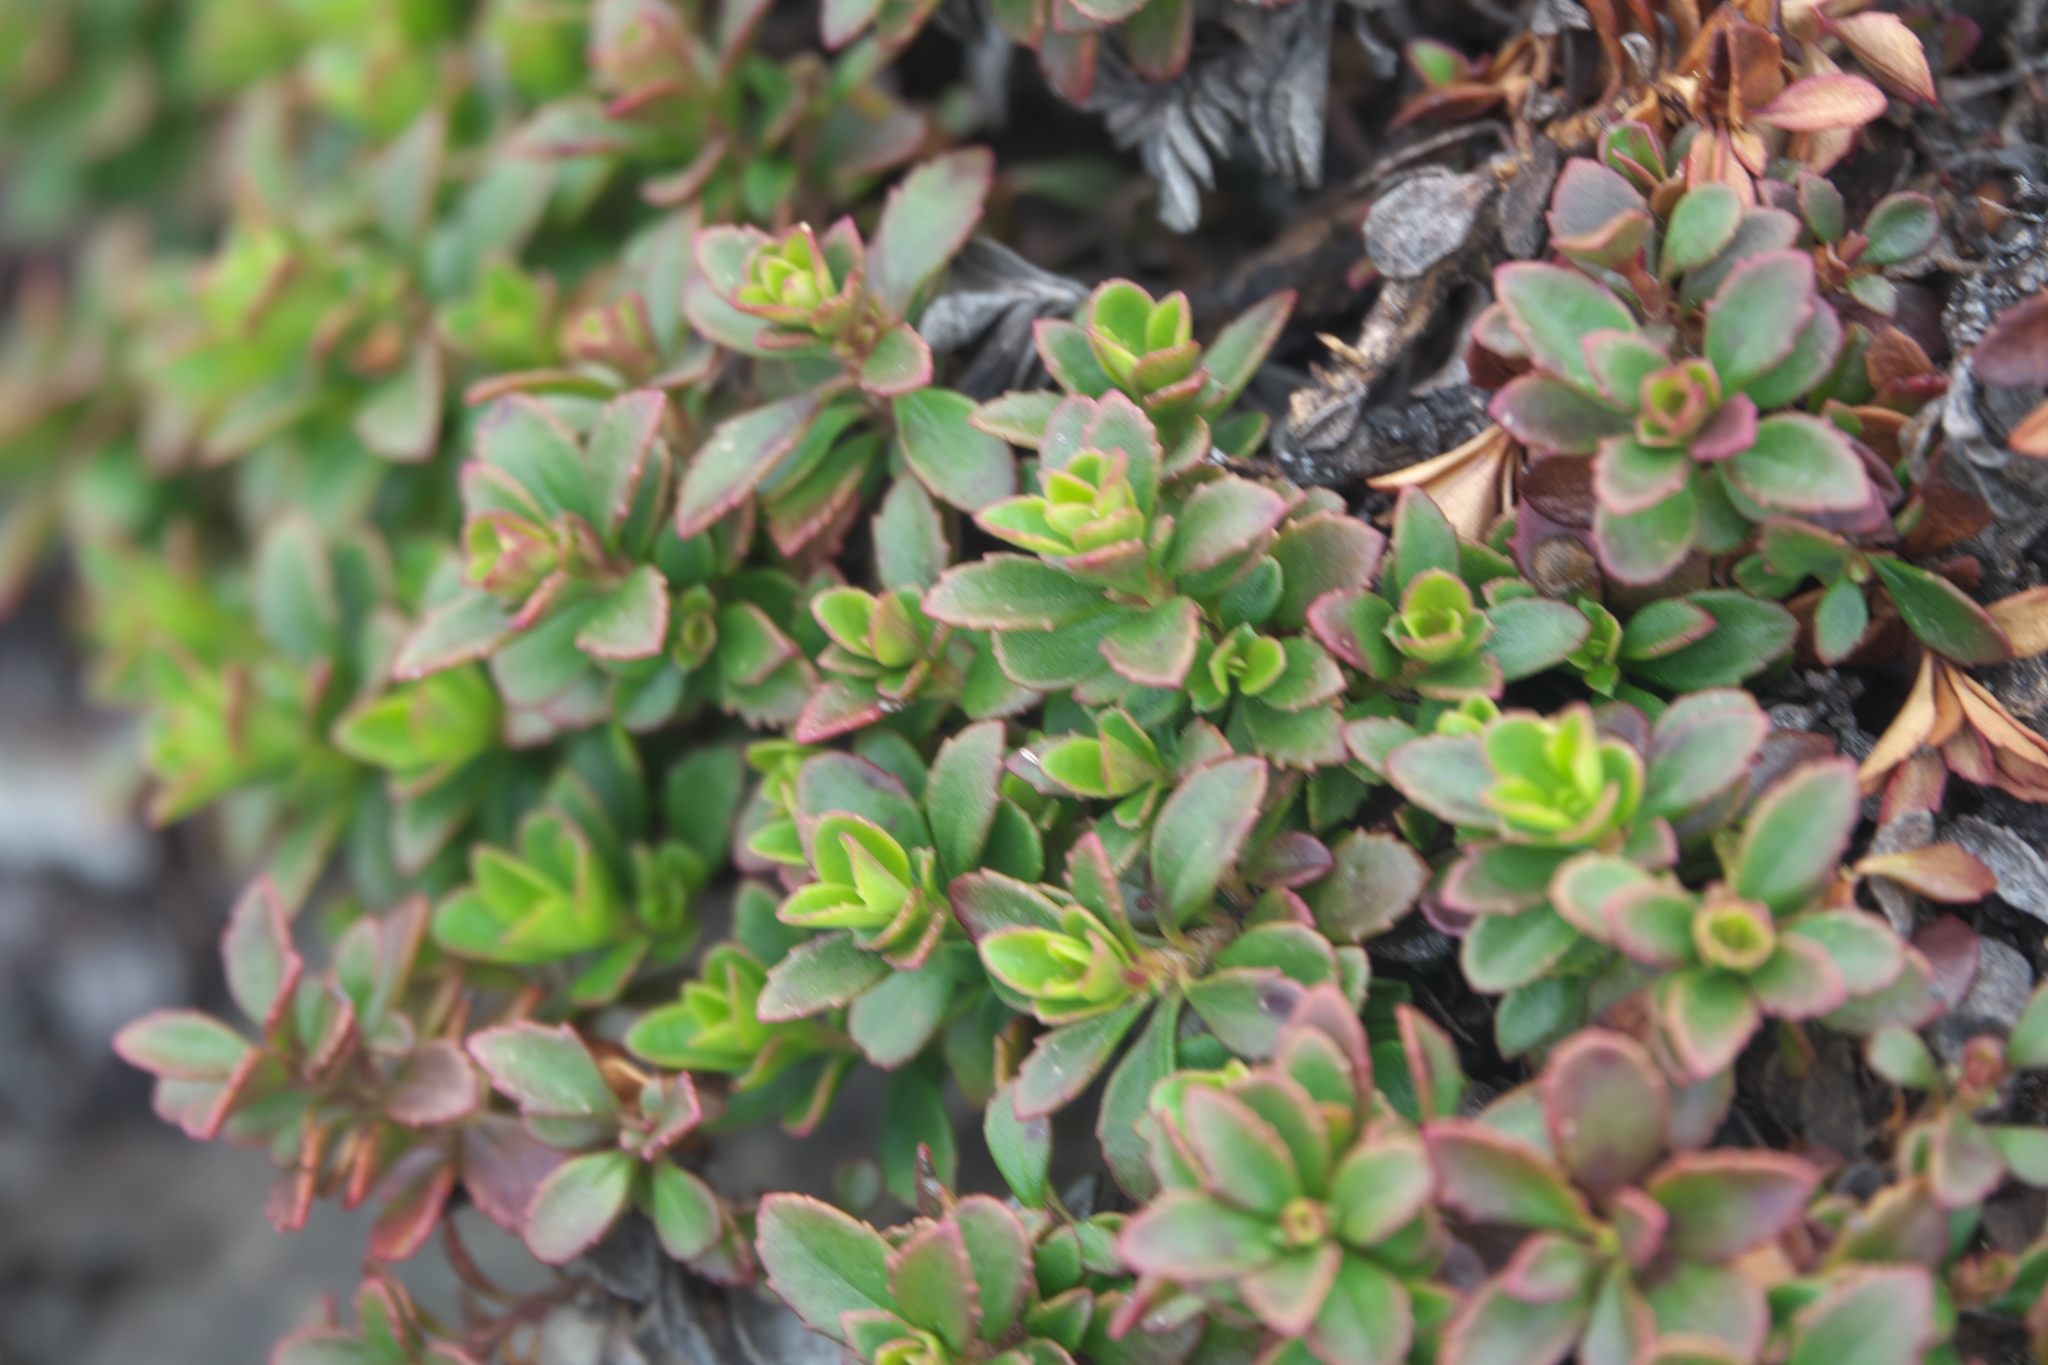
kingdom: Plantae
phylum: Tracheophyta
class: Magnoliopsida
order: Lamiales
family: Plantaginaceae
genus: Penstemon
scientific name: Penstemon davidsonii
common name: Davidson's penstemon
